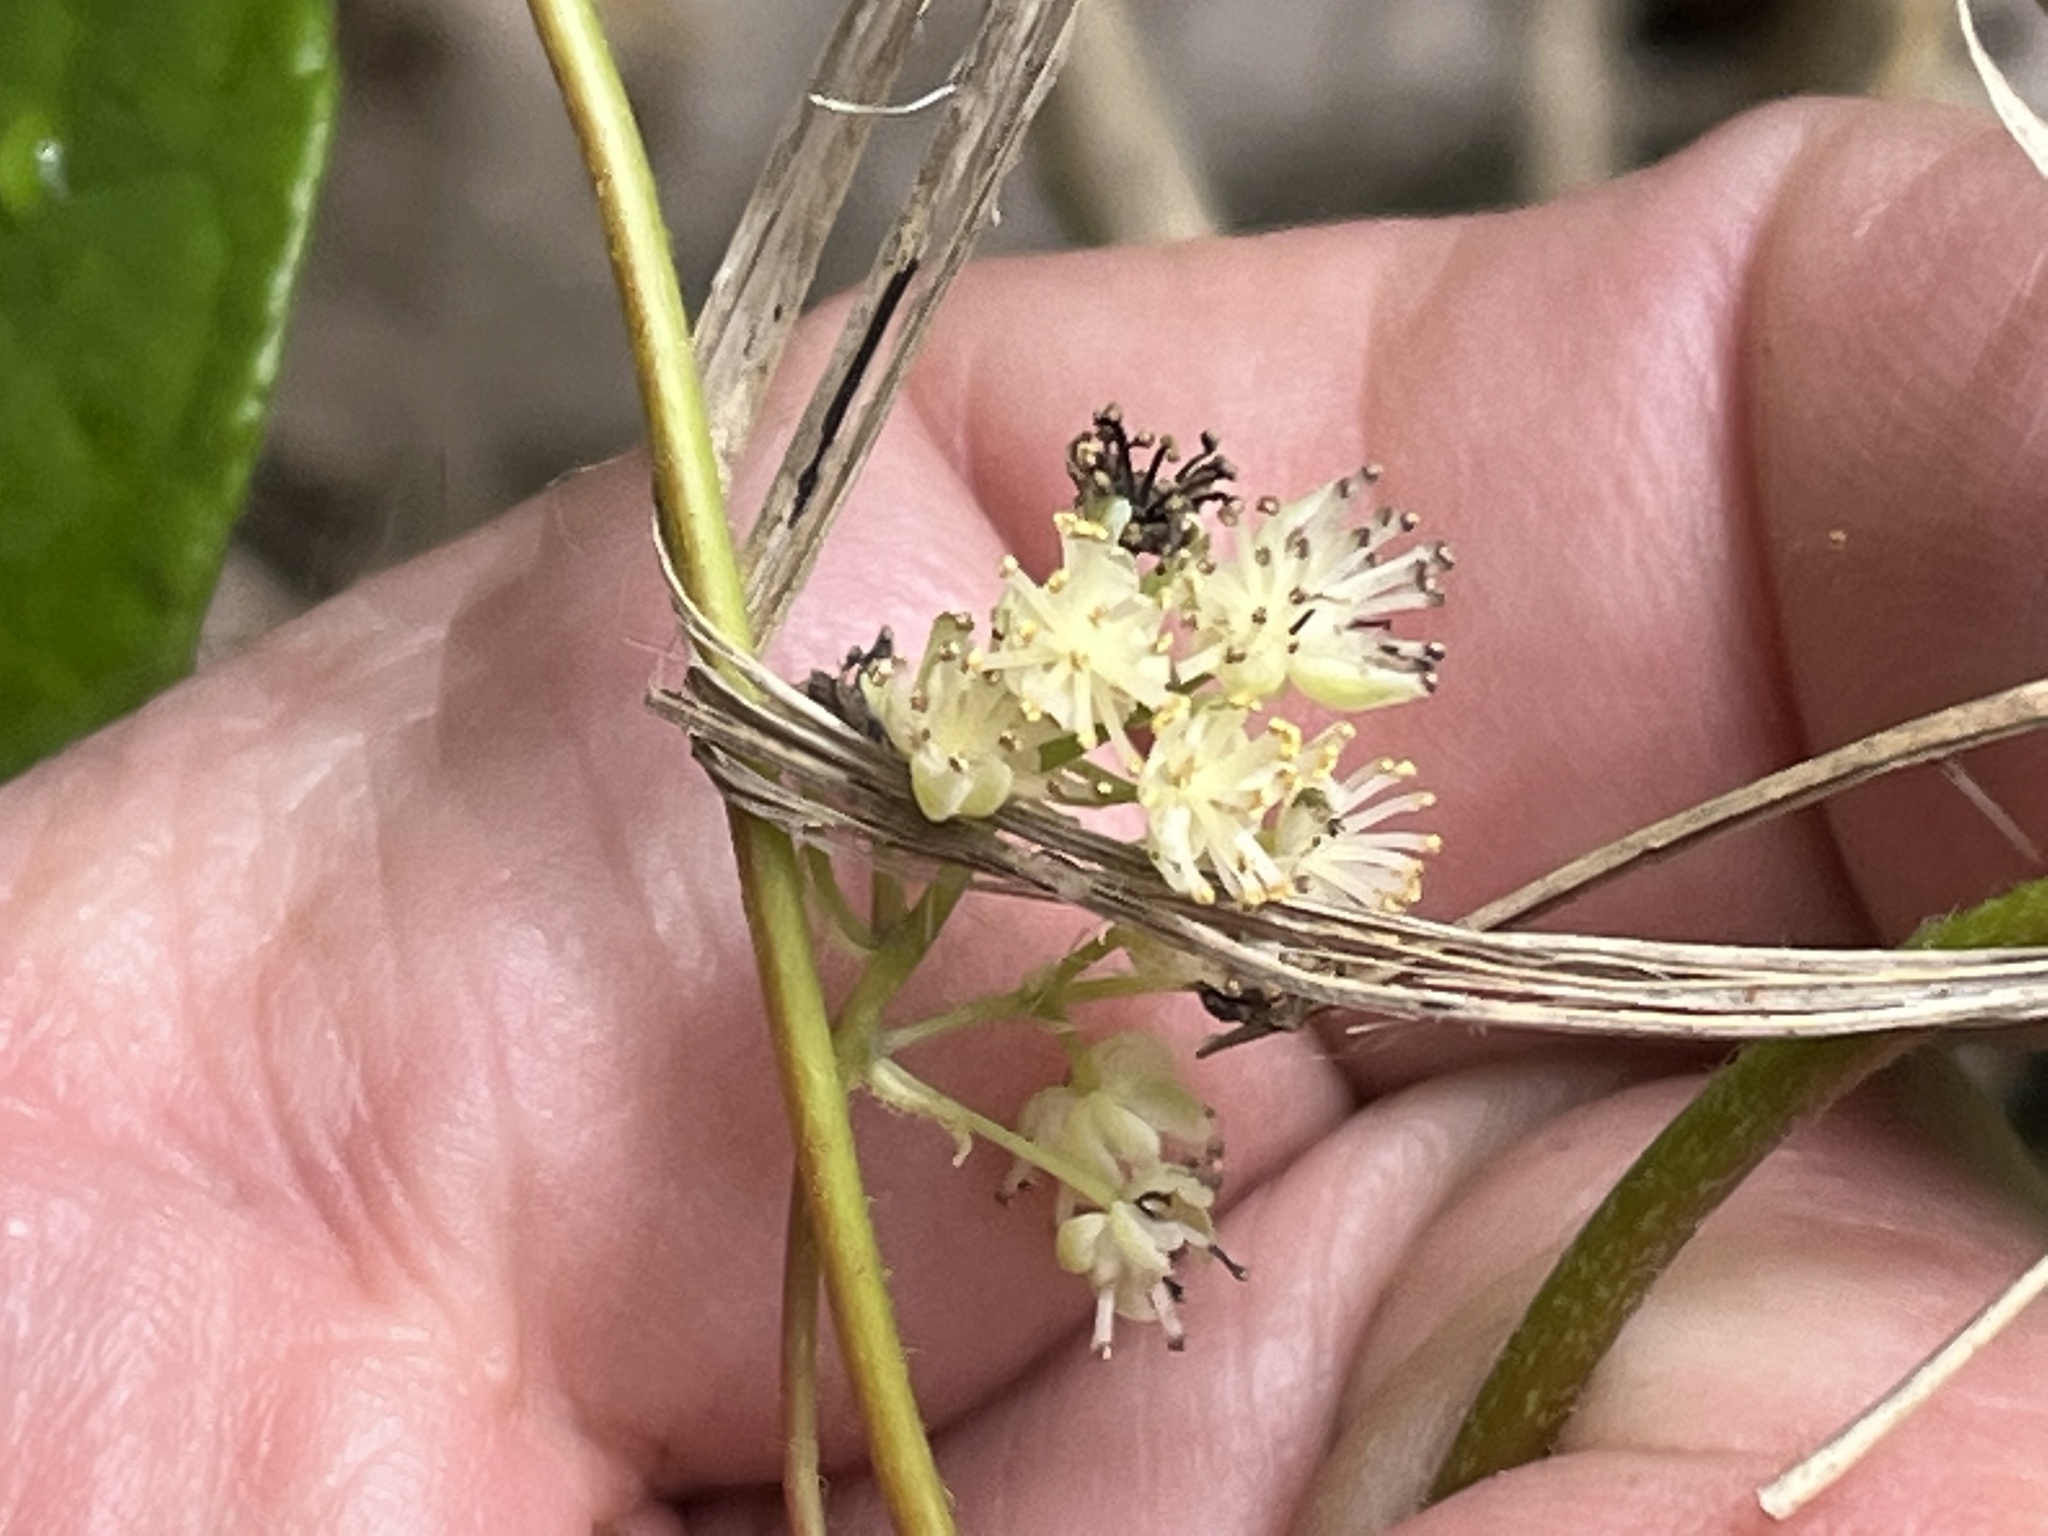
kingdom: Plantae
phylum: Tracheophyta
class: Magnoliopsida
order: Ranunculales
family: Menispermaceae
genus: Menispermum
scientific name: Menispermum canadense
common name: Moonseed
